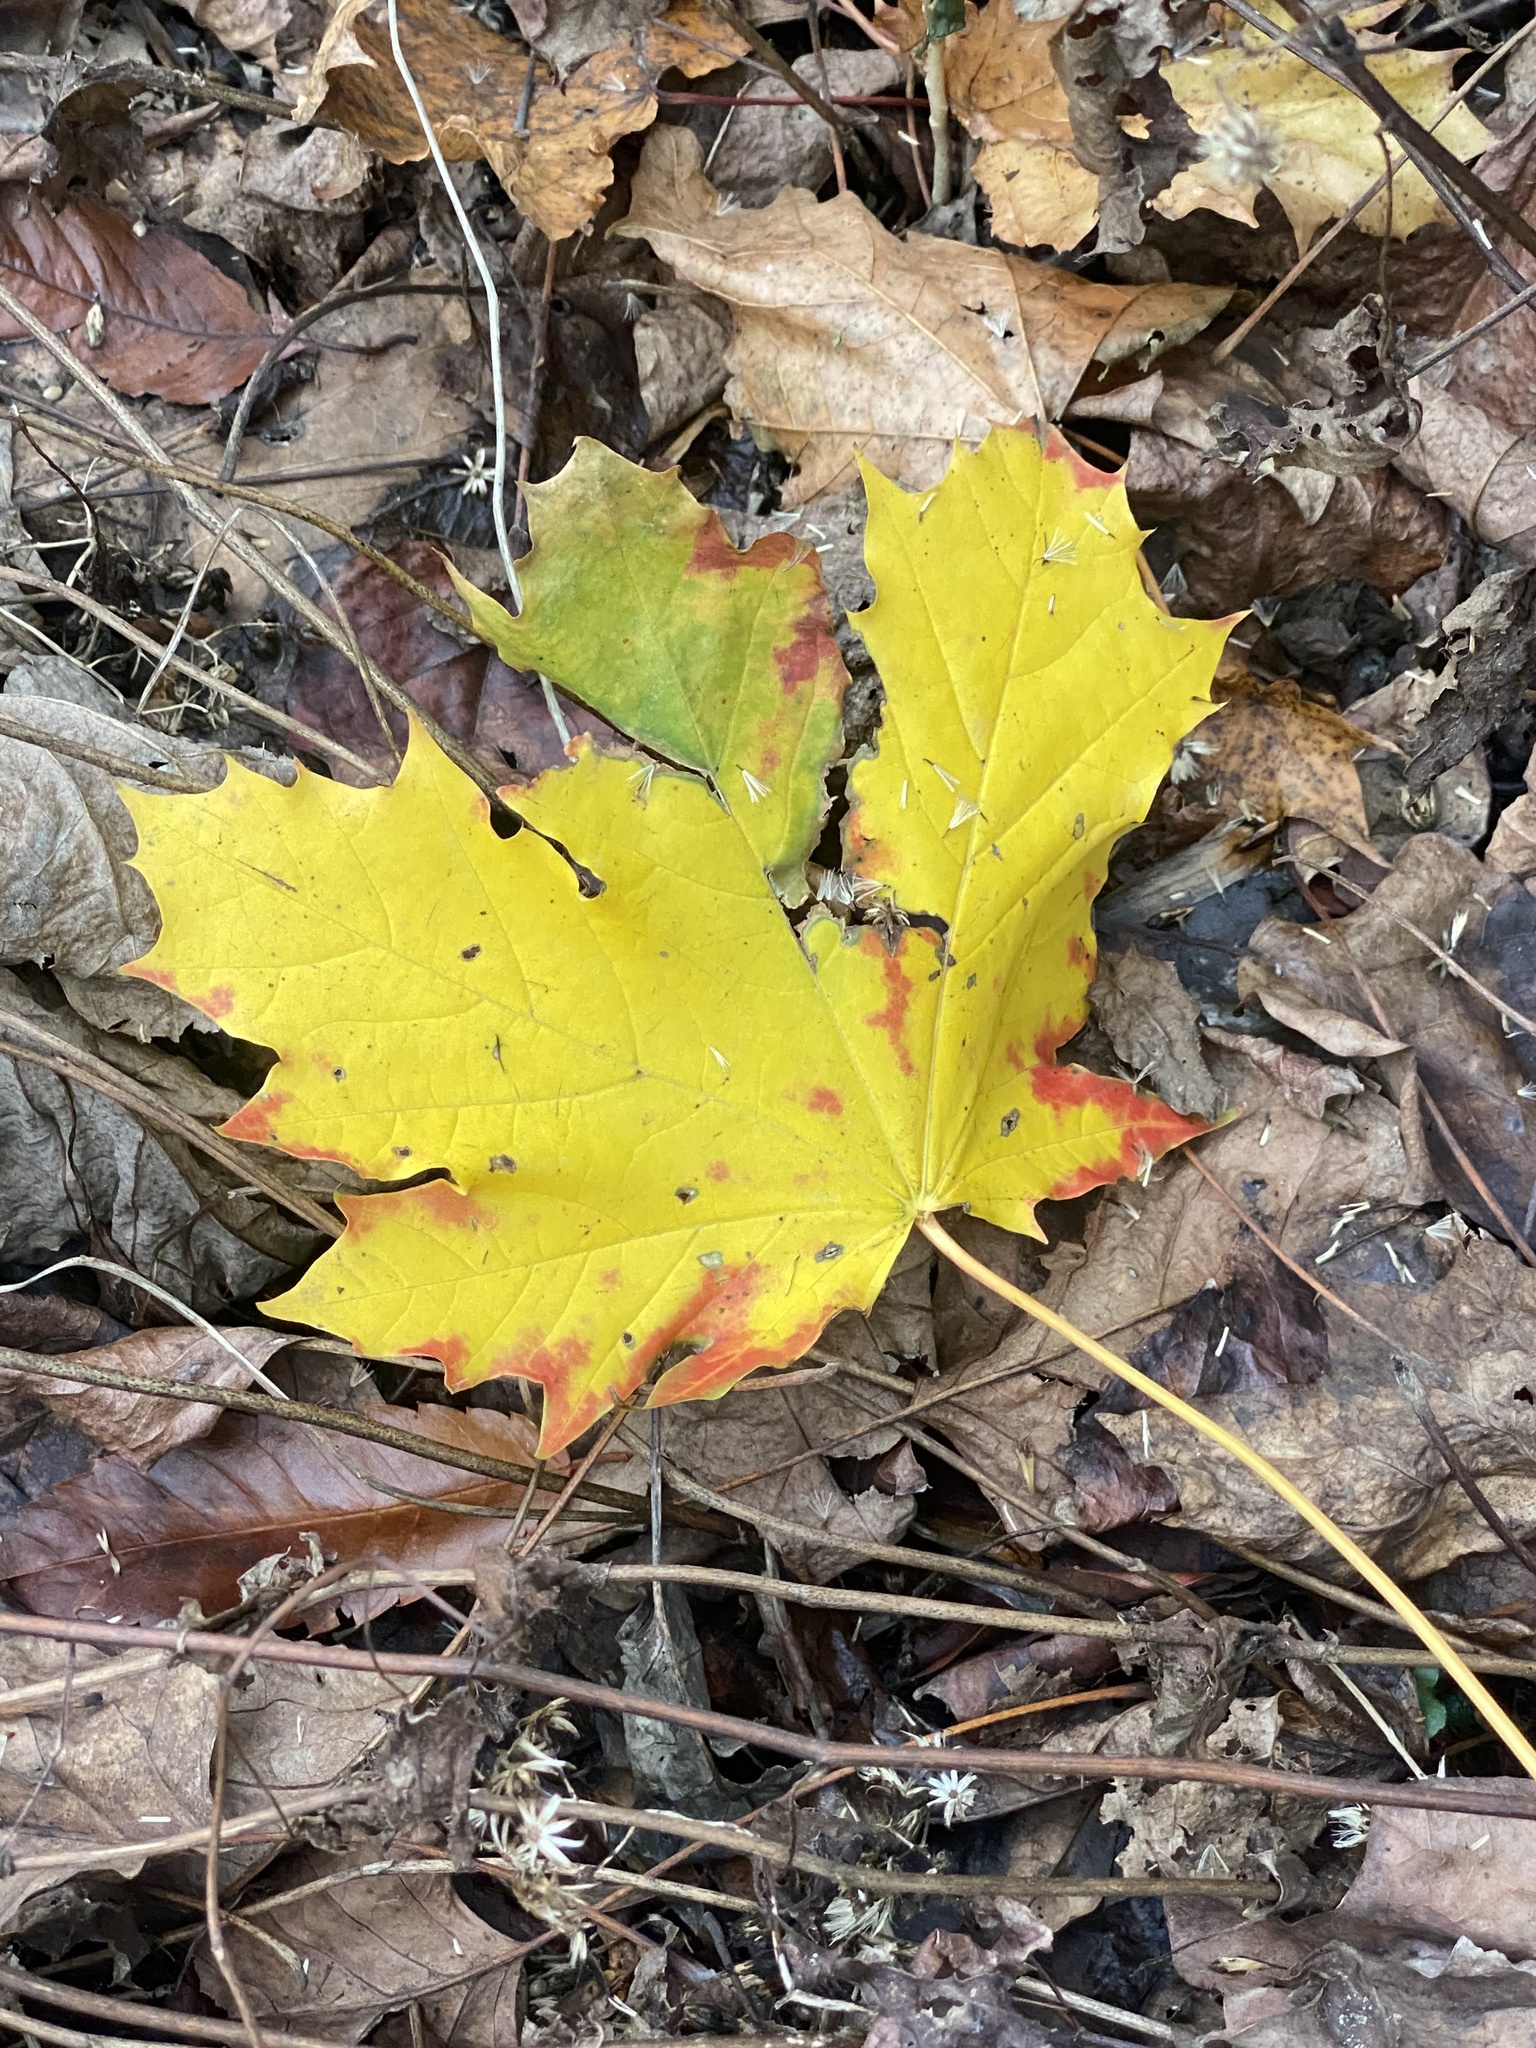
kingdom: Plantae
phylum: Tracheophyta
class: Magnoliopsida
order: Sapindales
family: Sapindaceae
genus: Acer
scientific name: Acer platanoides
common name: Norway maple
